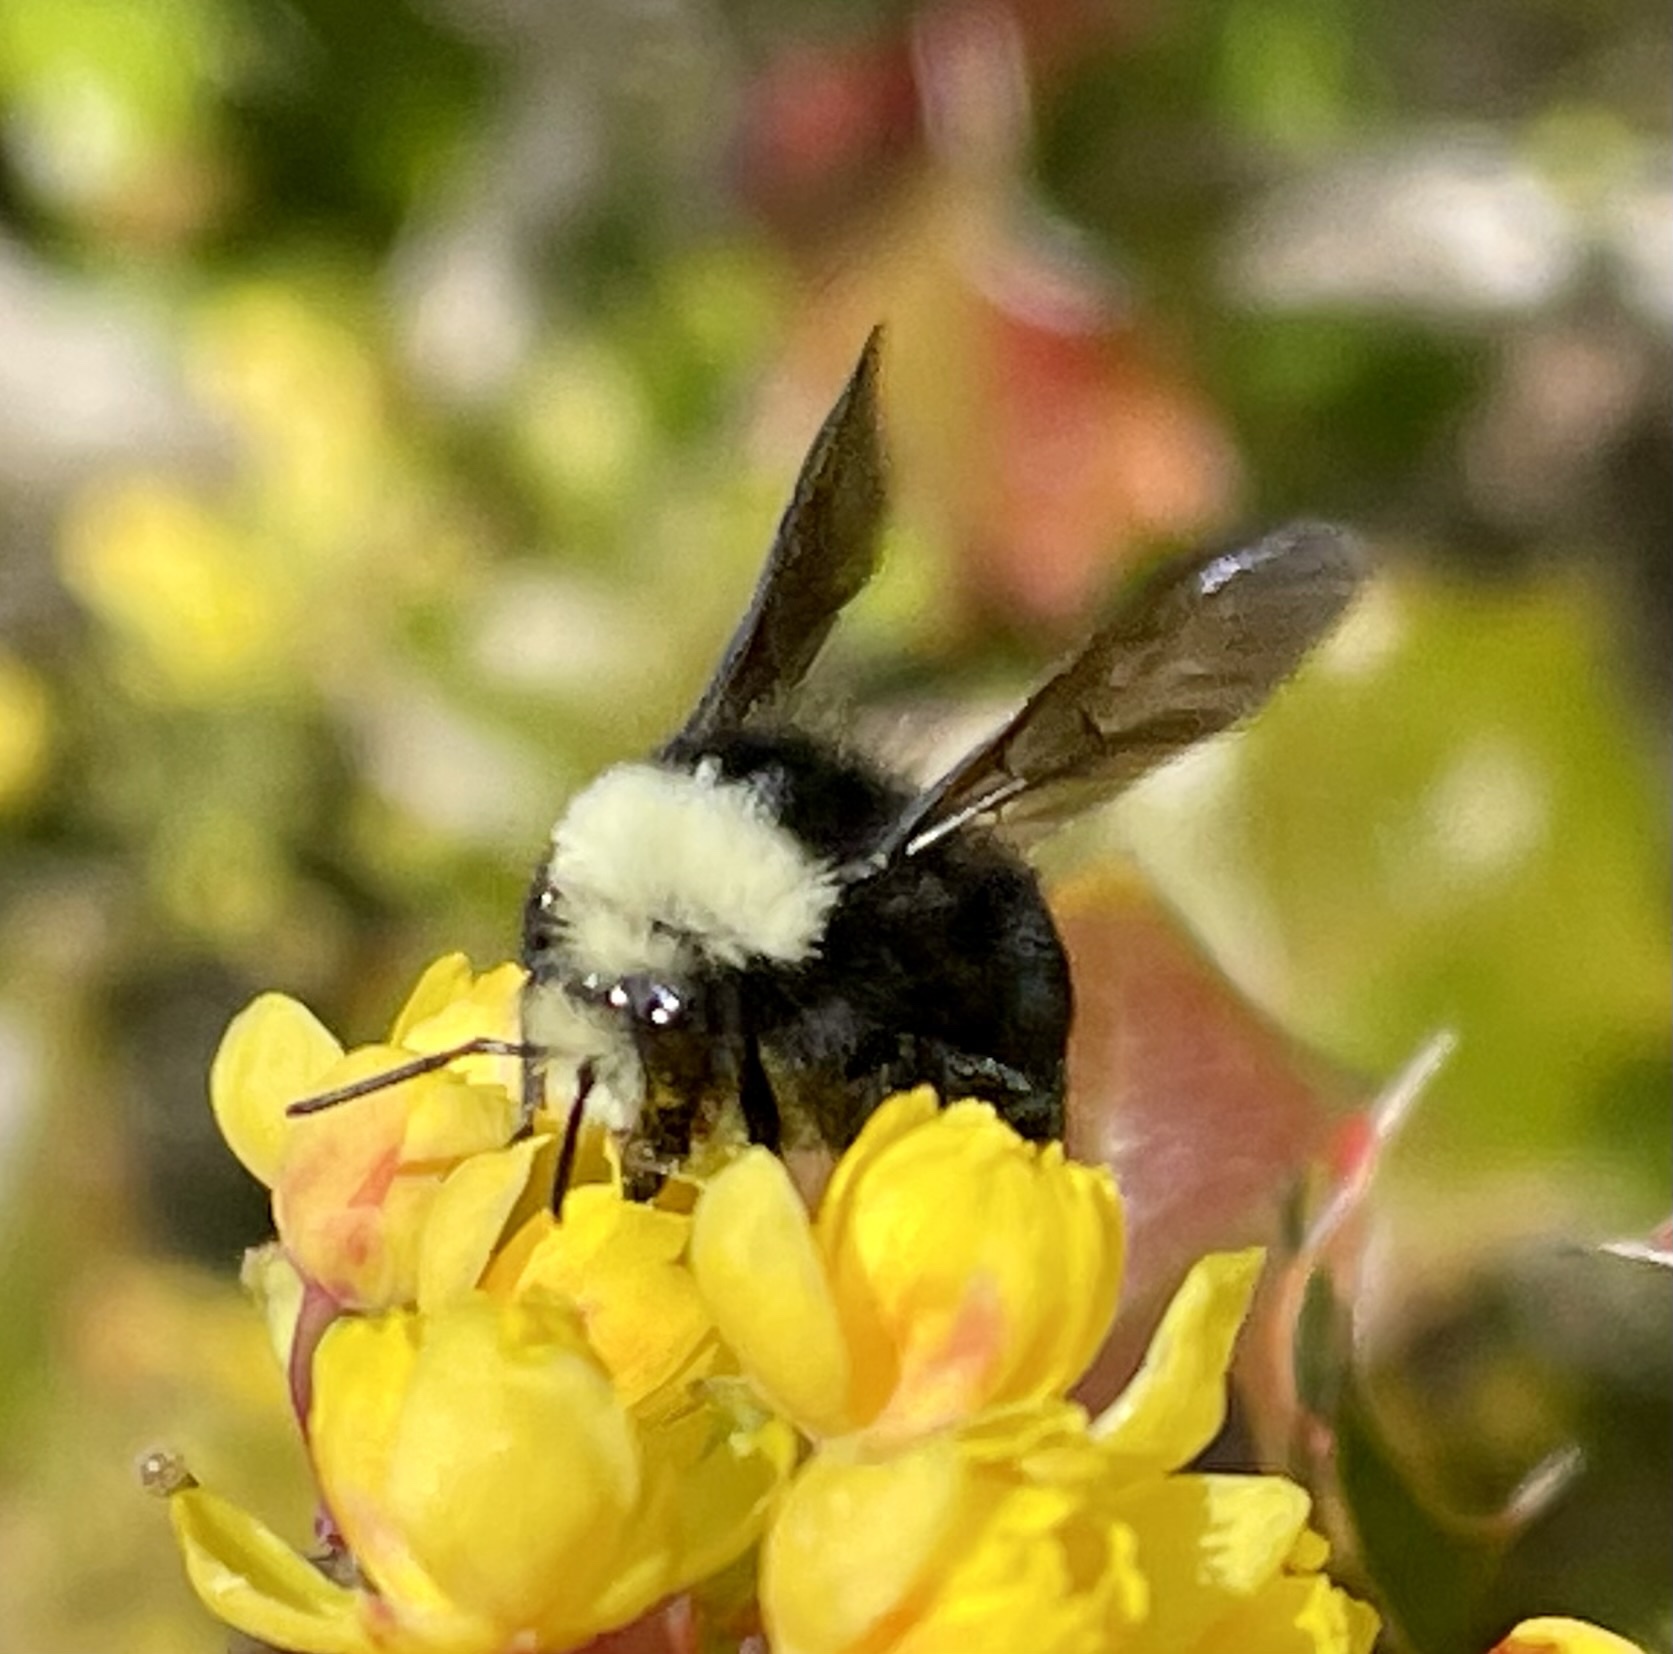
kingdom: Animalia
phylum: Arthropoda
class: Insecta
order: Hymenoptera
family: Apidae
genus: Bombus
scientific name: Bombus vosnesenskii
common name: Vosnesensky bumble bee
